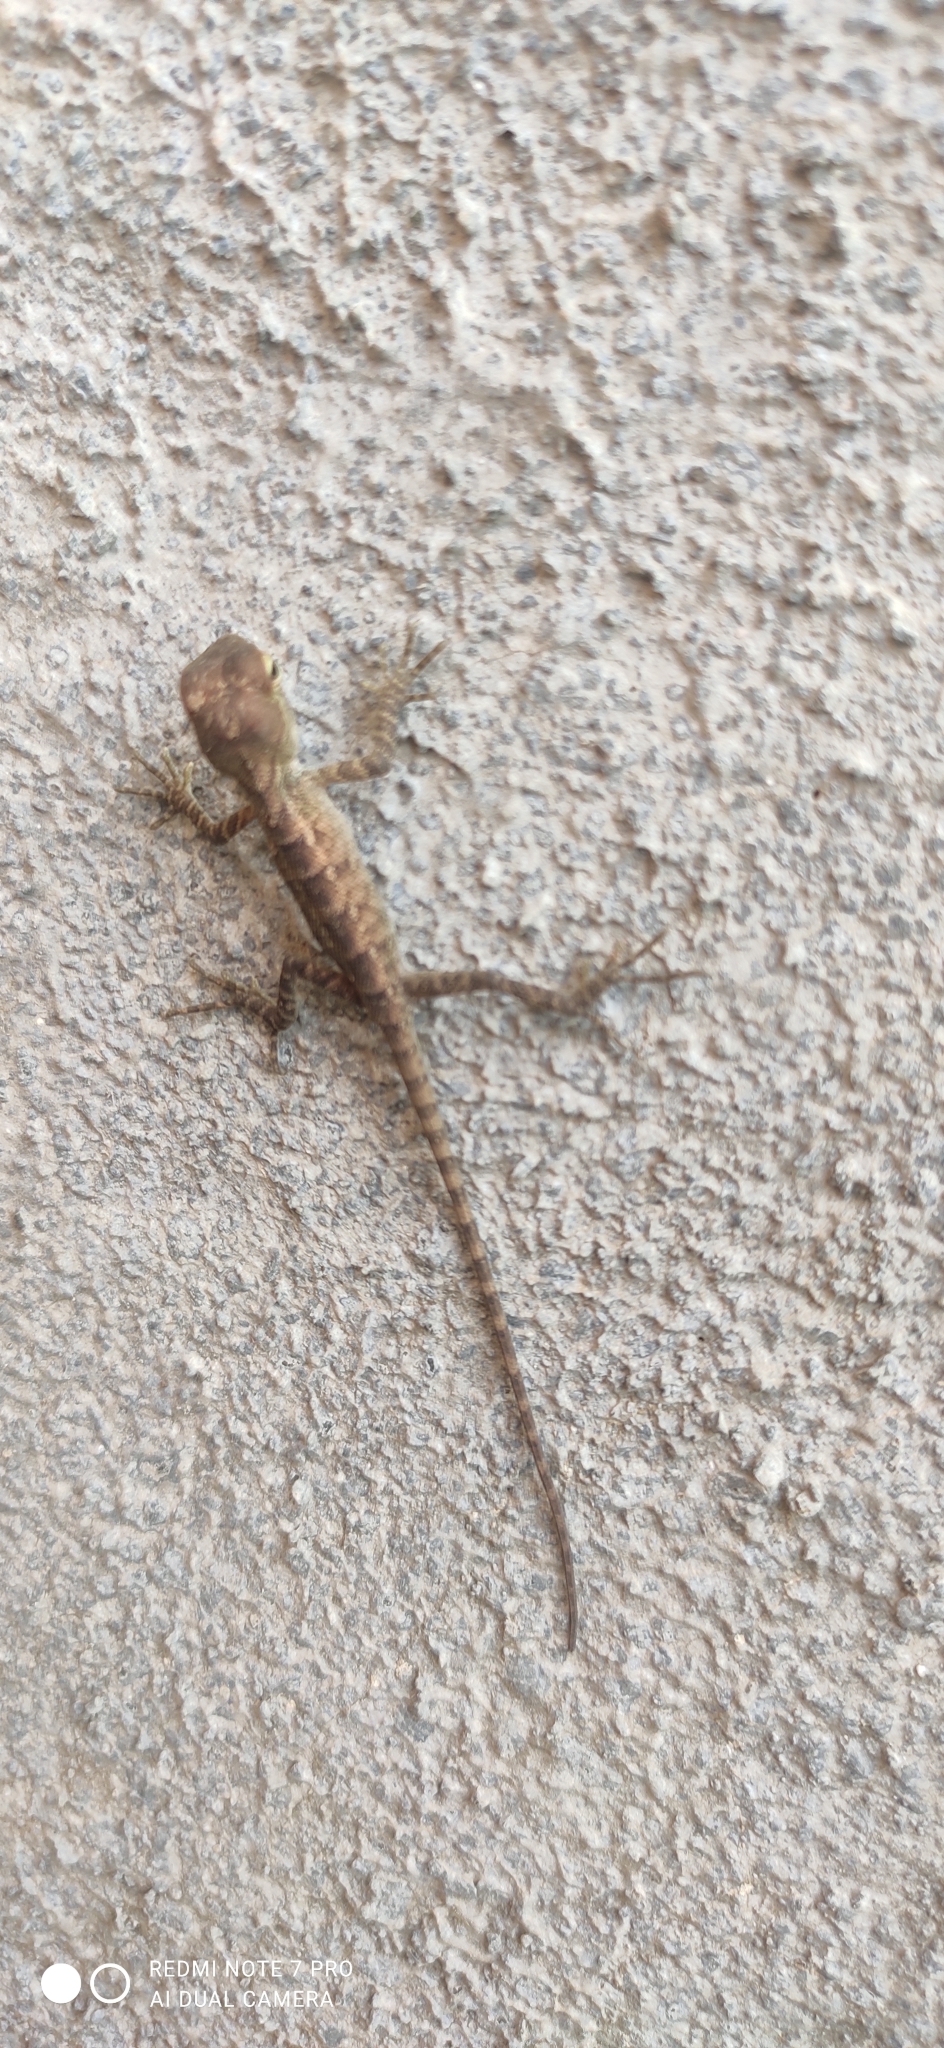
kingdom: Animalia
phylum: Chordata
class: Squamata
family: Agamidae
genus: Calotes
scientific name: Calotes versicolor
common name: Oriental garden lizard
